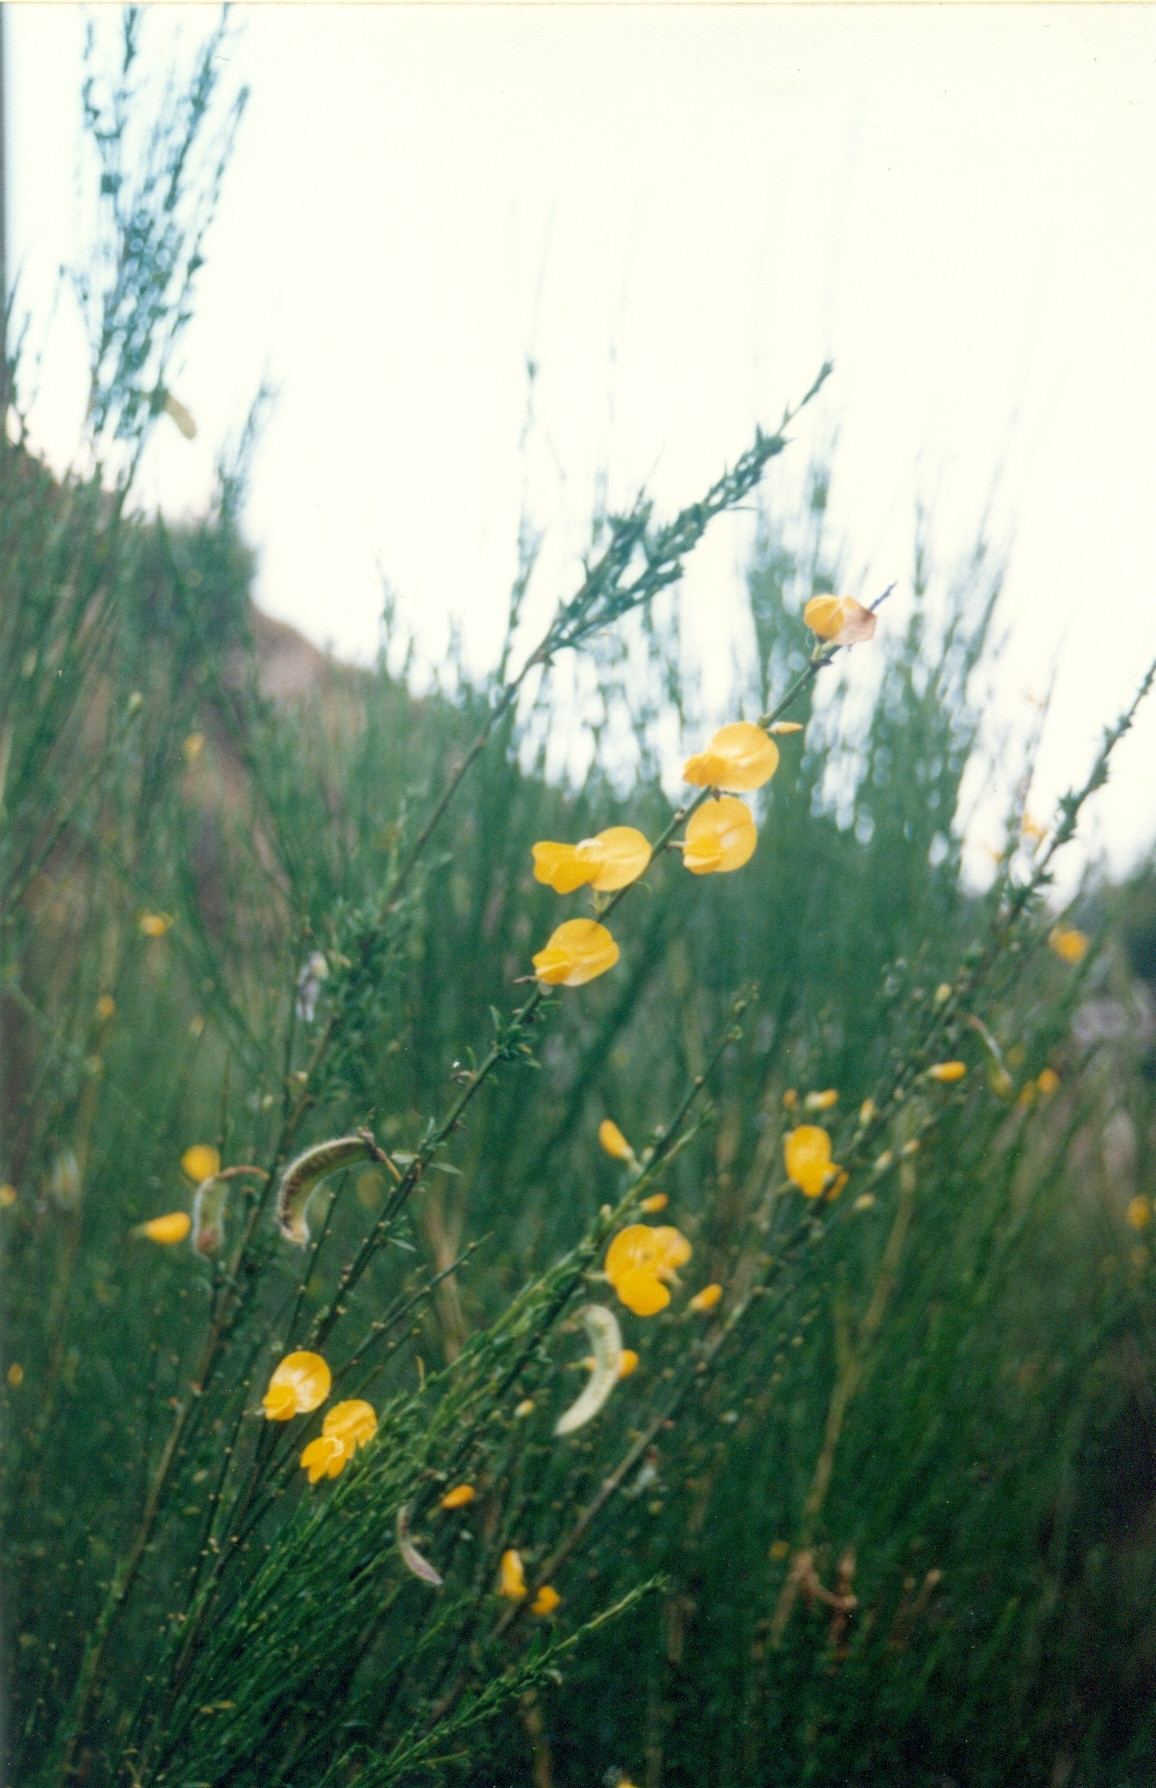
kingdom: Plantae
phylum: Tracheophyta
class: Magnoliopsida
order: Fabales
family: Fabaceae
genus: Cytisus
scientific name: Cytisus scoparius
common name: Scotch broom
